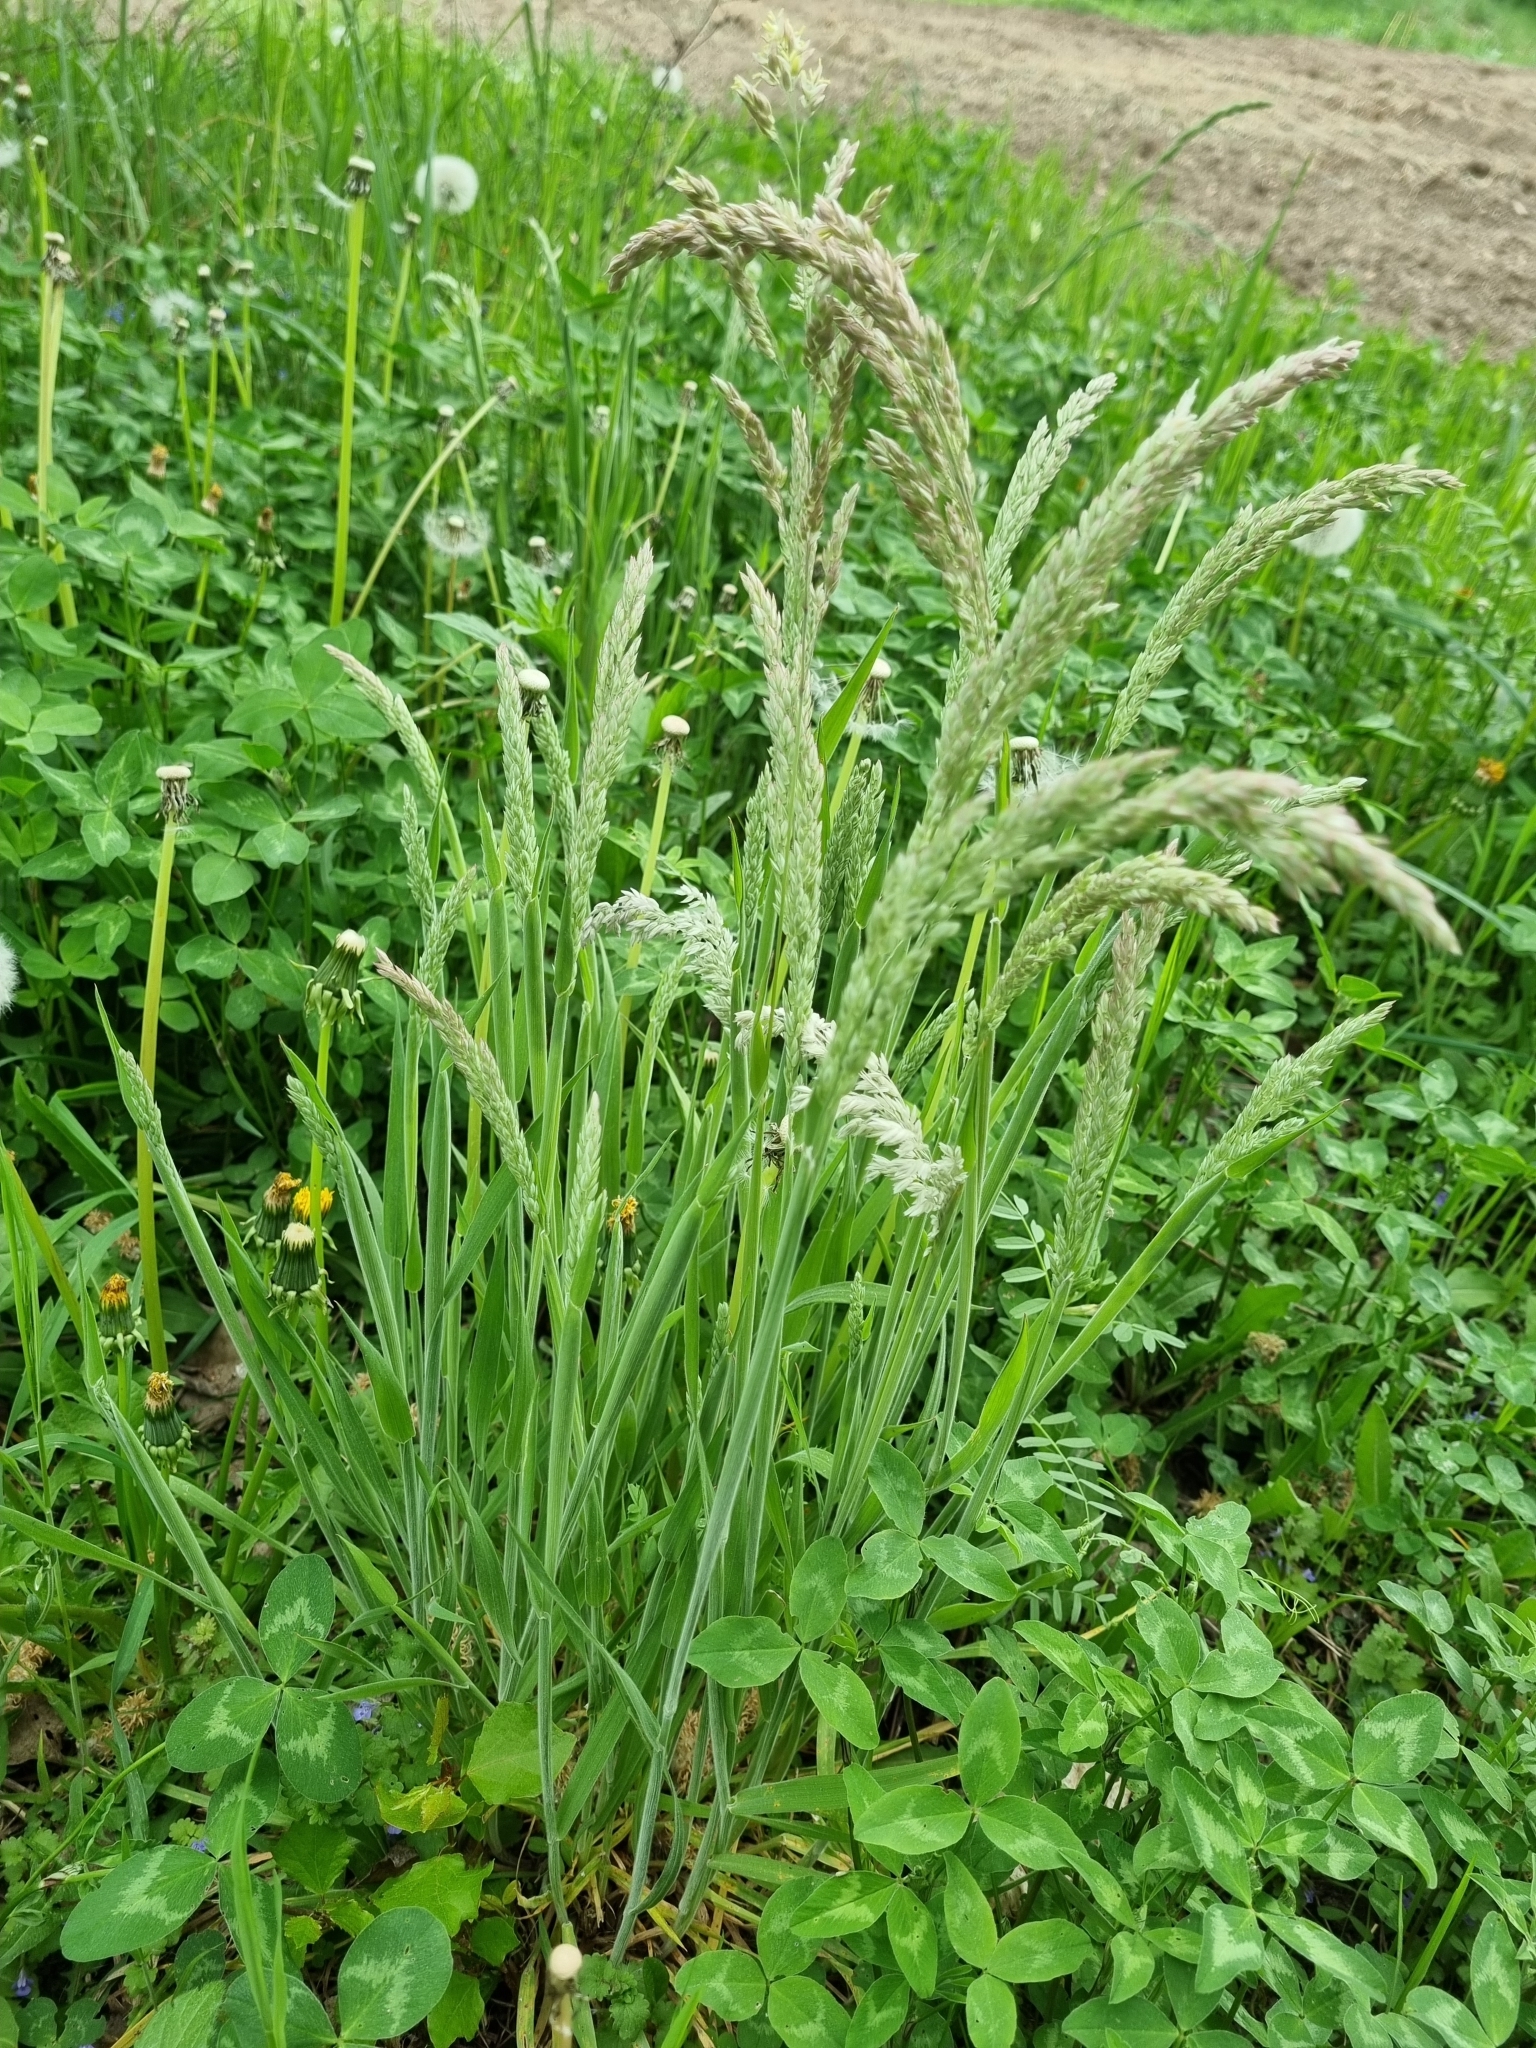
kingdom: Plantae
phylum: Tracheophyta
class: Liliopsida
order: Poales
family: Poaceae
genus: Holcus
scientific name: Holcus lanatus
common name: Yorkshire-fog
